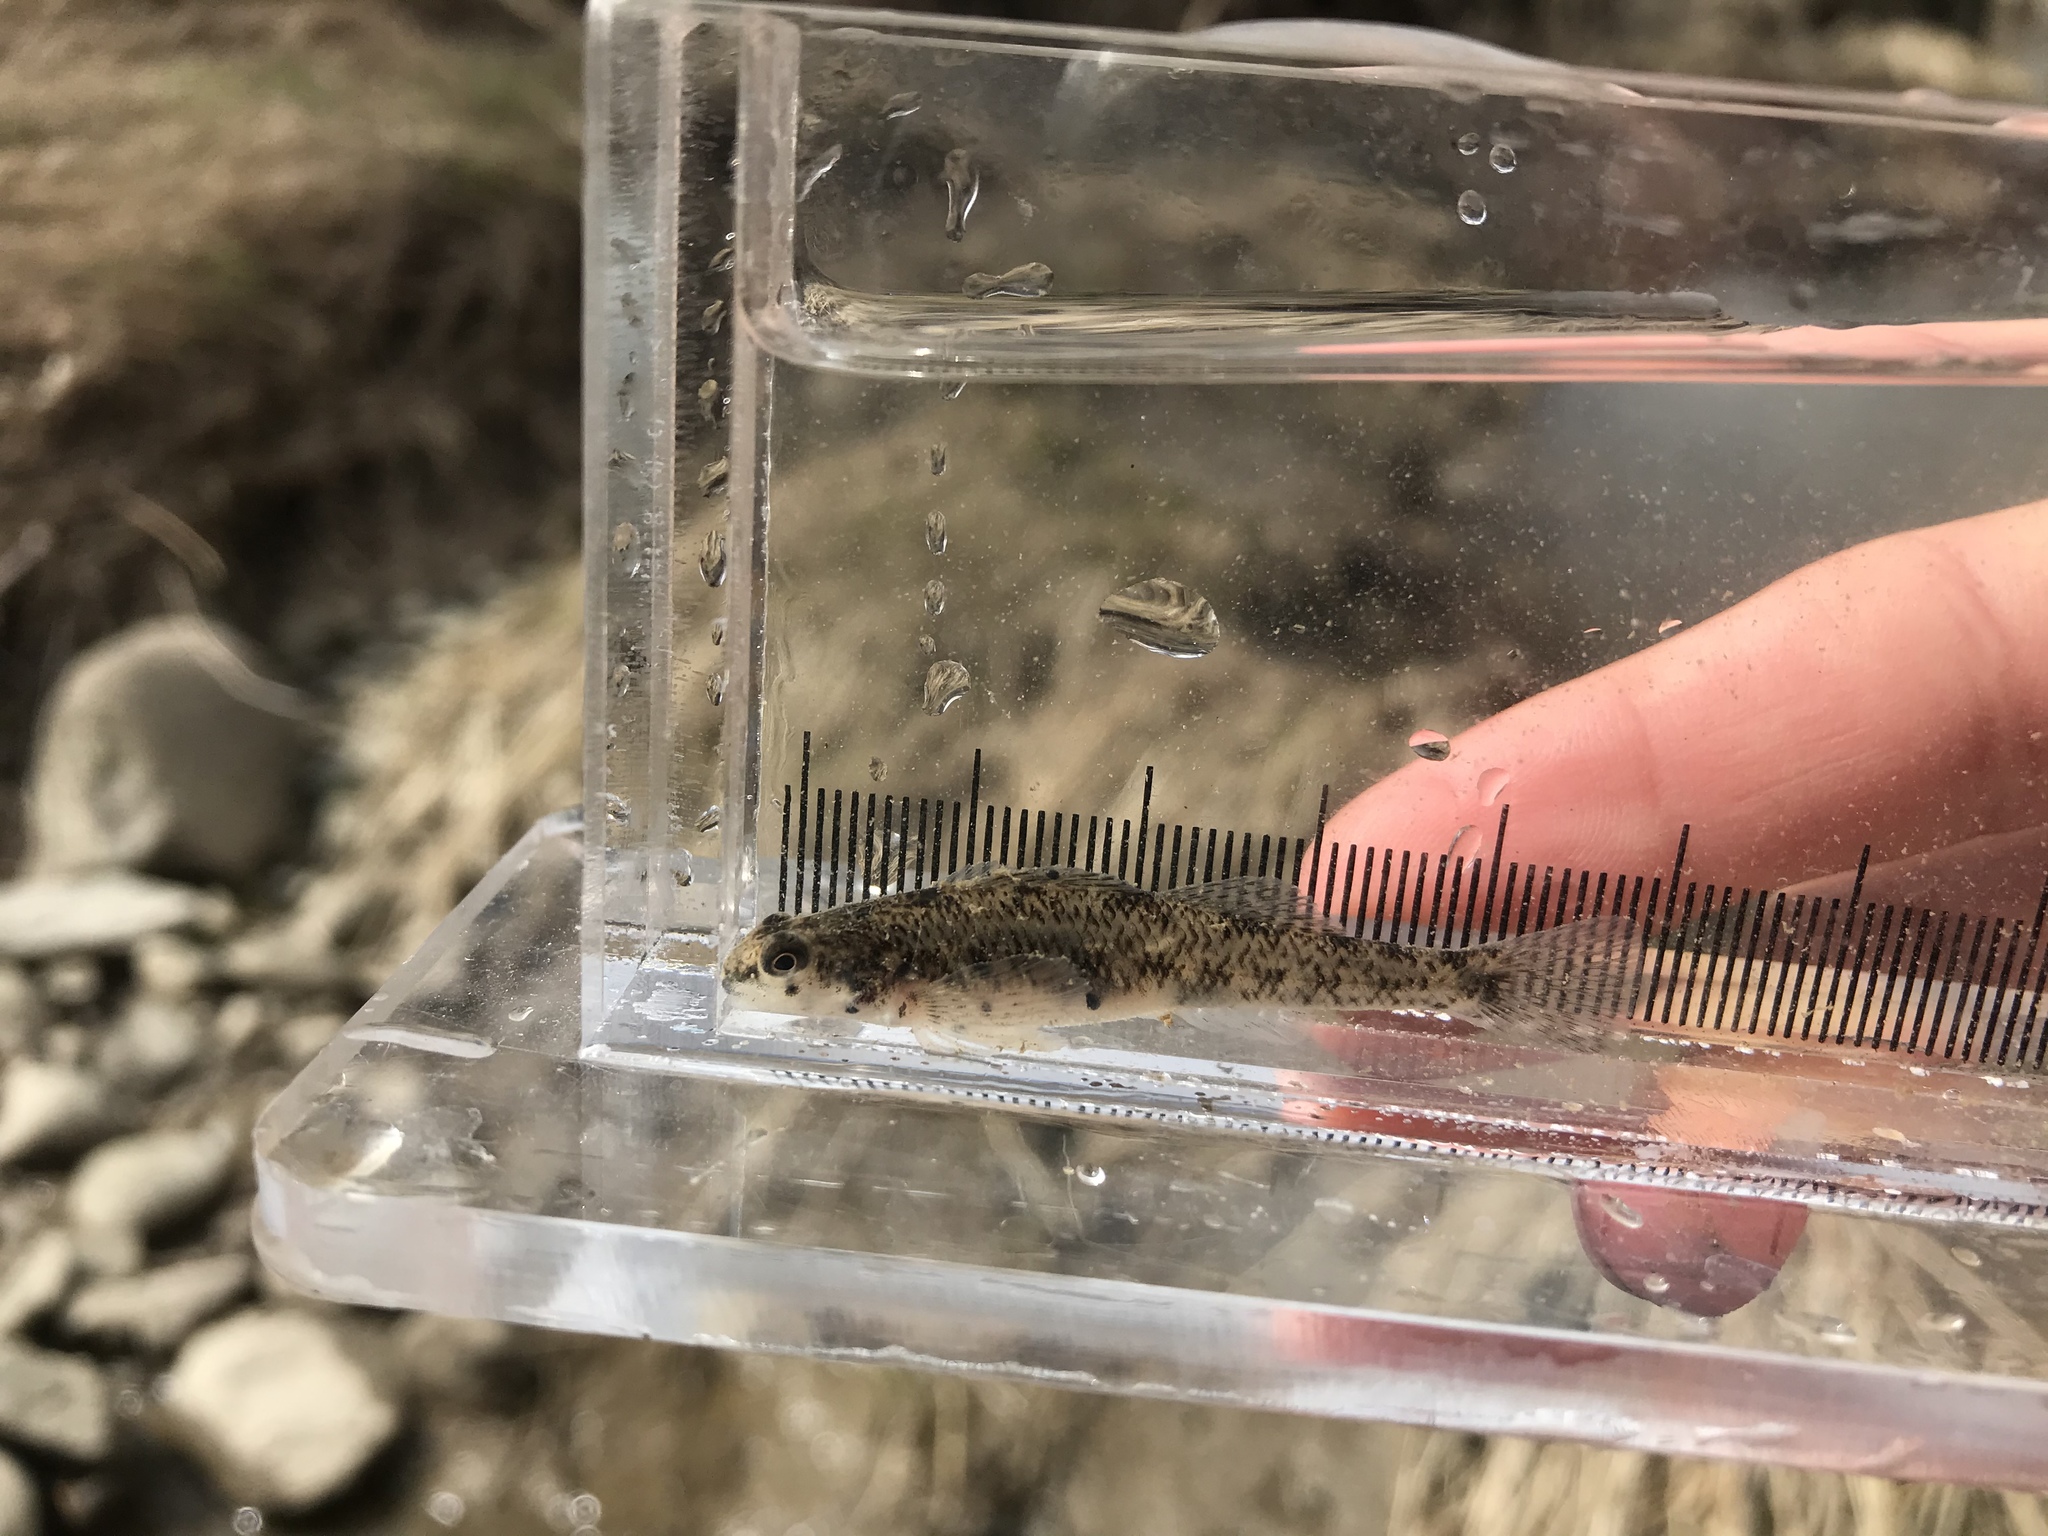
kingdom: Animalia
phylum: Chordata
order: Perciformes
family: Percidae
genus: Etheostoma
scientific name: Etheostoma nigrum
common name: Johnny darter
